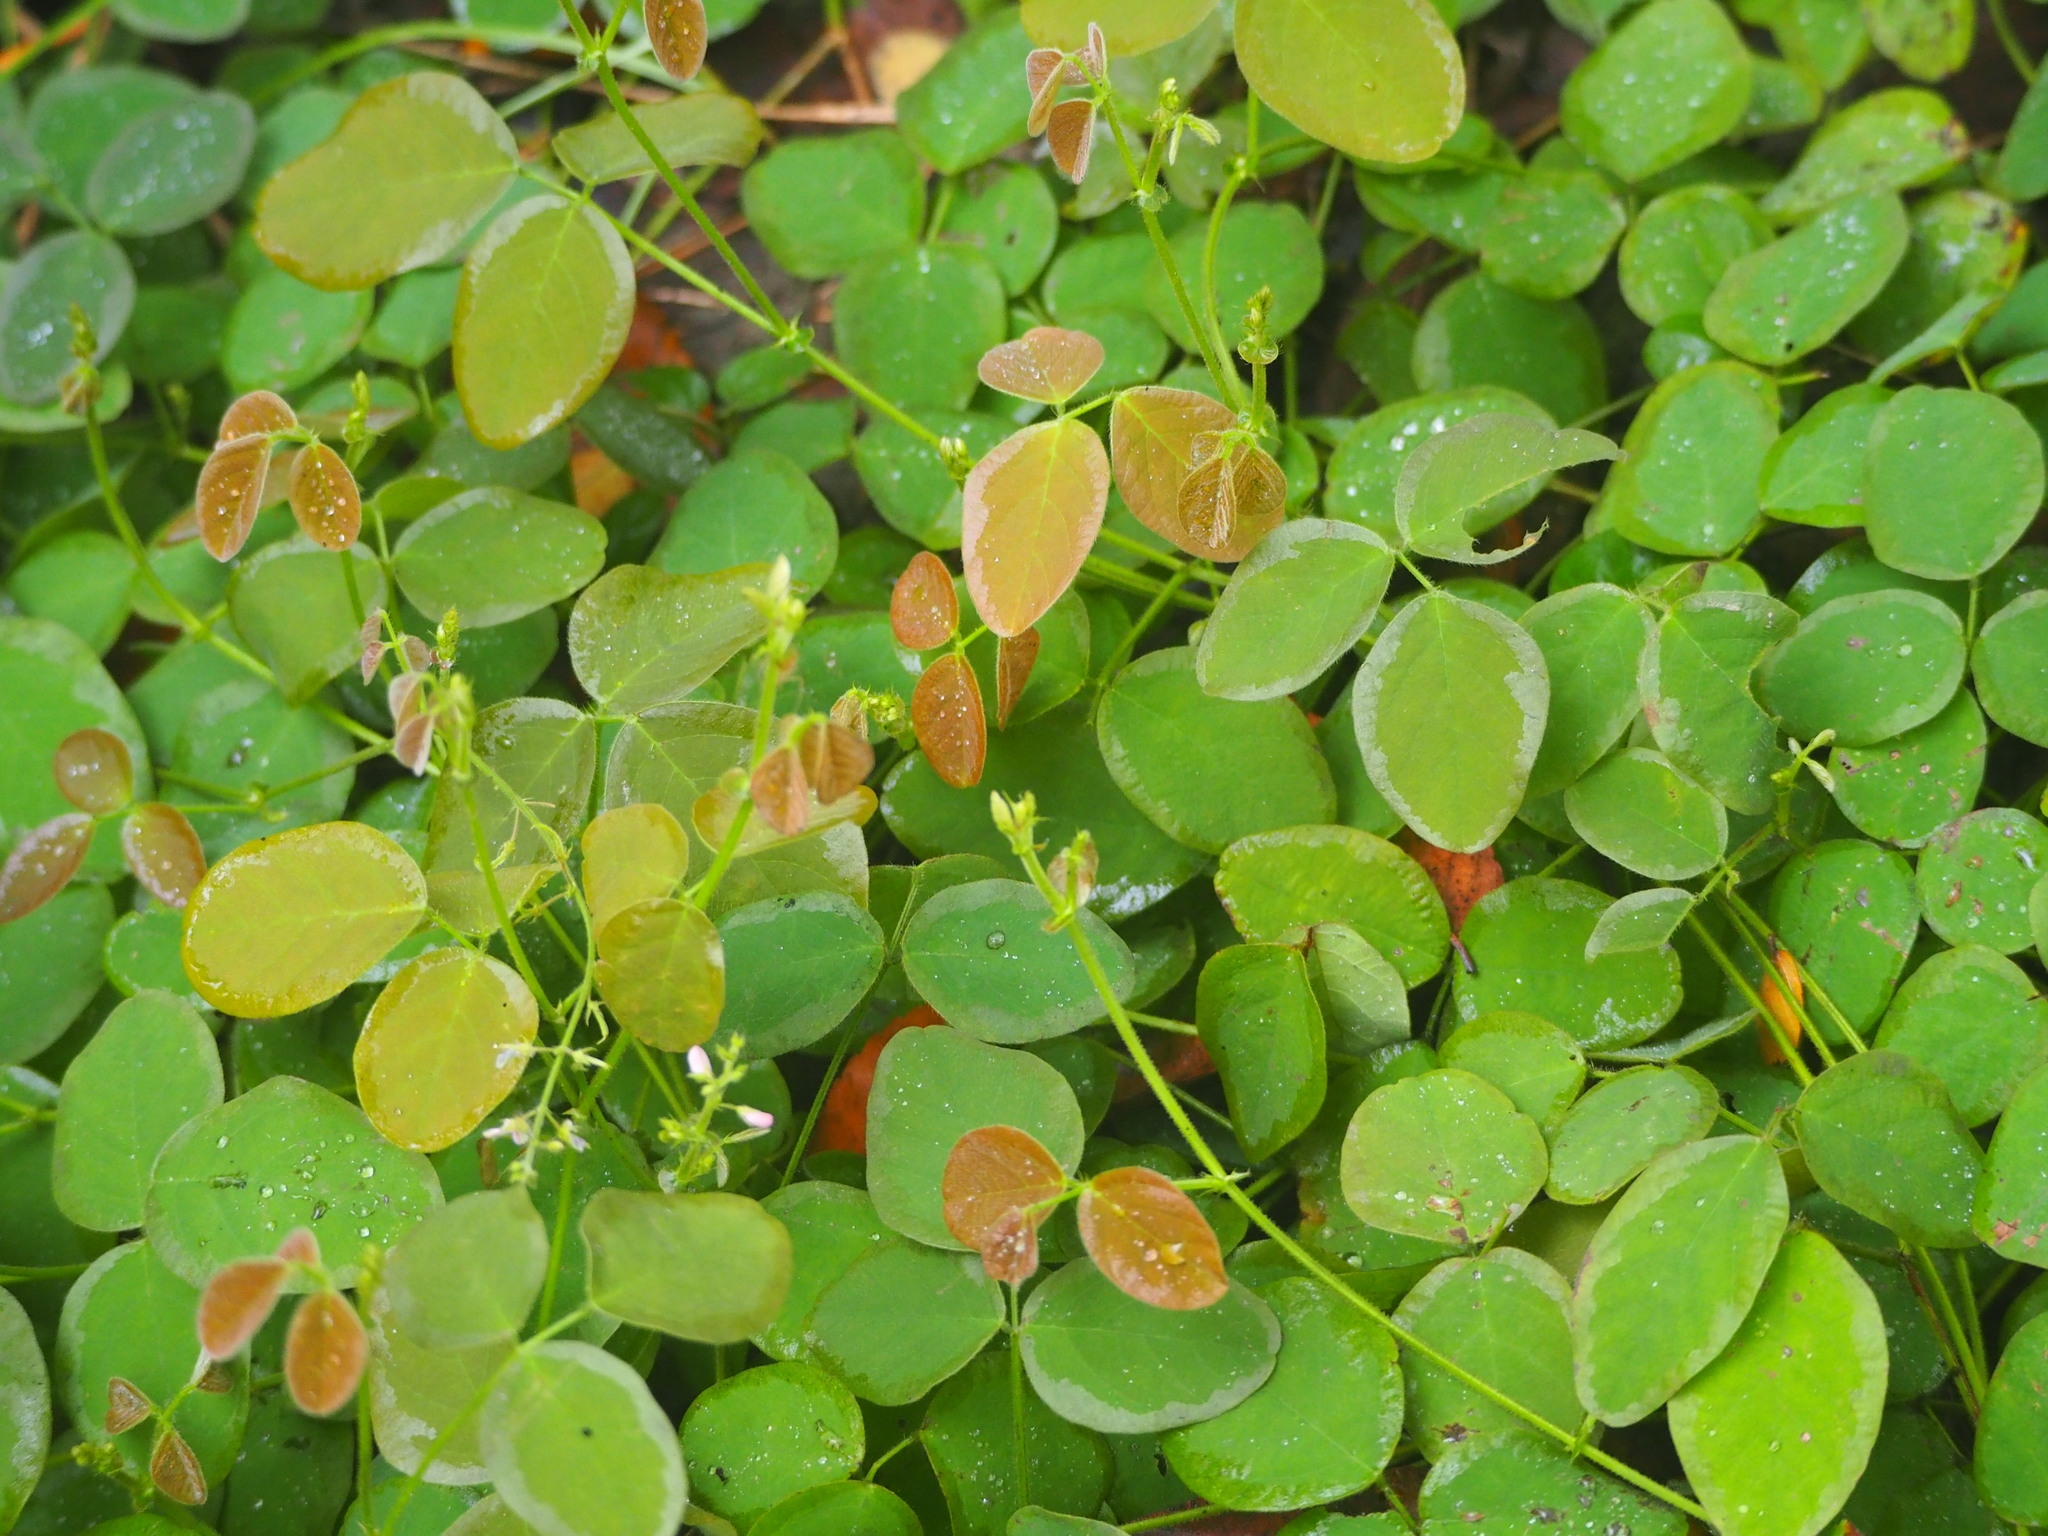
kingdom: Plantae
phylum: Tracheophyta
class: Magnoliopsida
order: Fabales
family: Fabaceae
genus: Desmodium
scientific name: Desmodium scorpiurus
